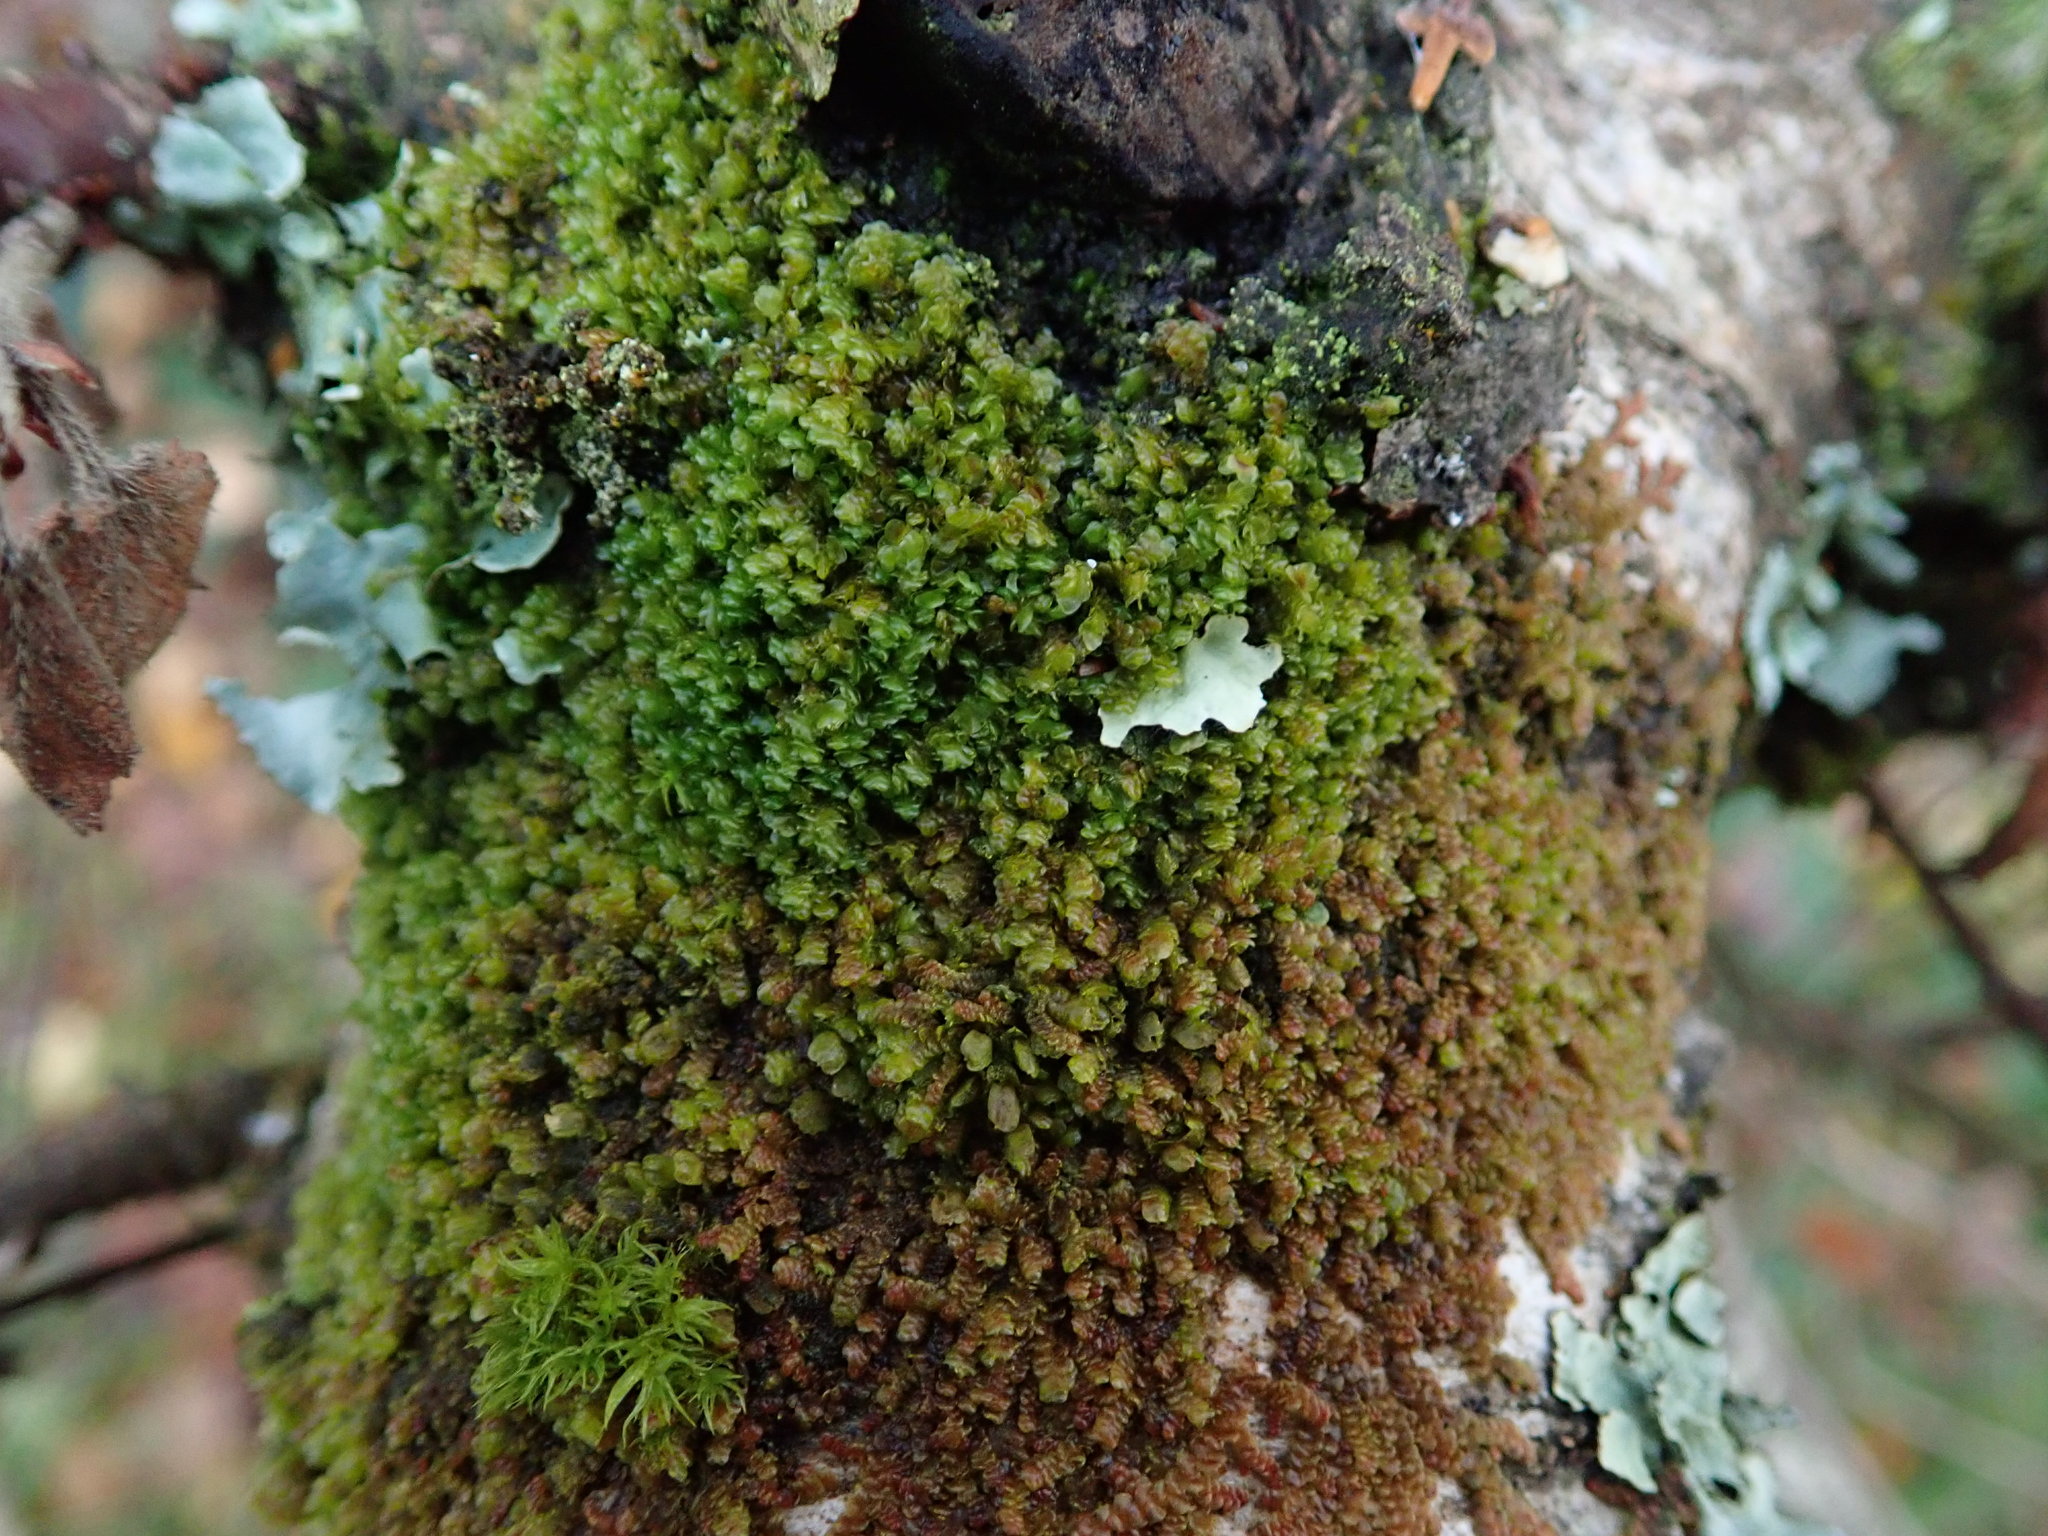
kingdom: Plantae
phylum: Marchantiophyta
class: Jungermanniopsida
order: Porellales
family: Frullaniaceae
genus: Frullania
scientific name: Frullania dilatata
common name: Dilated scalewort
